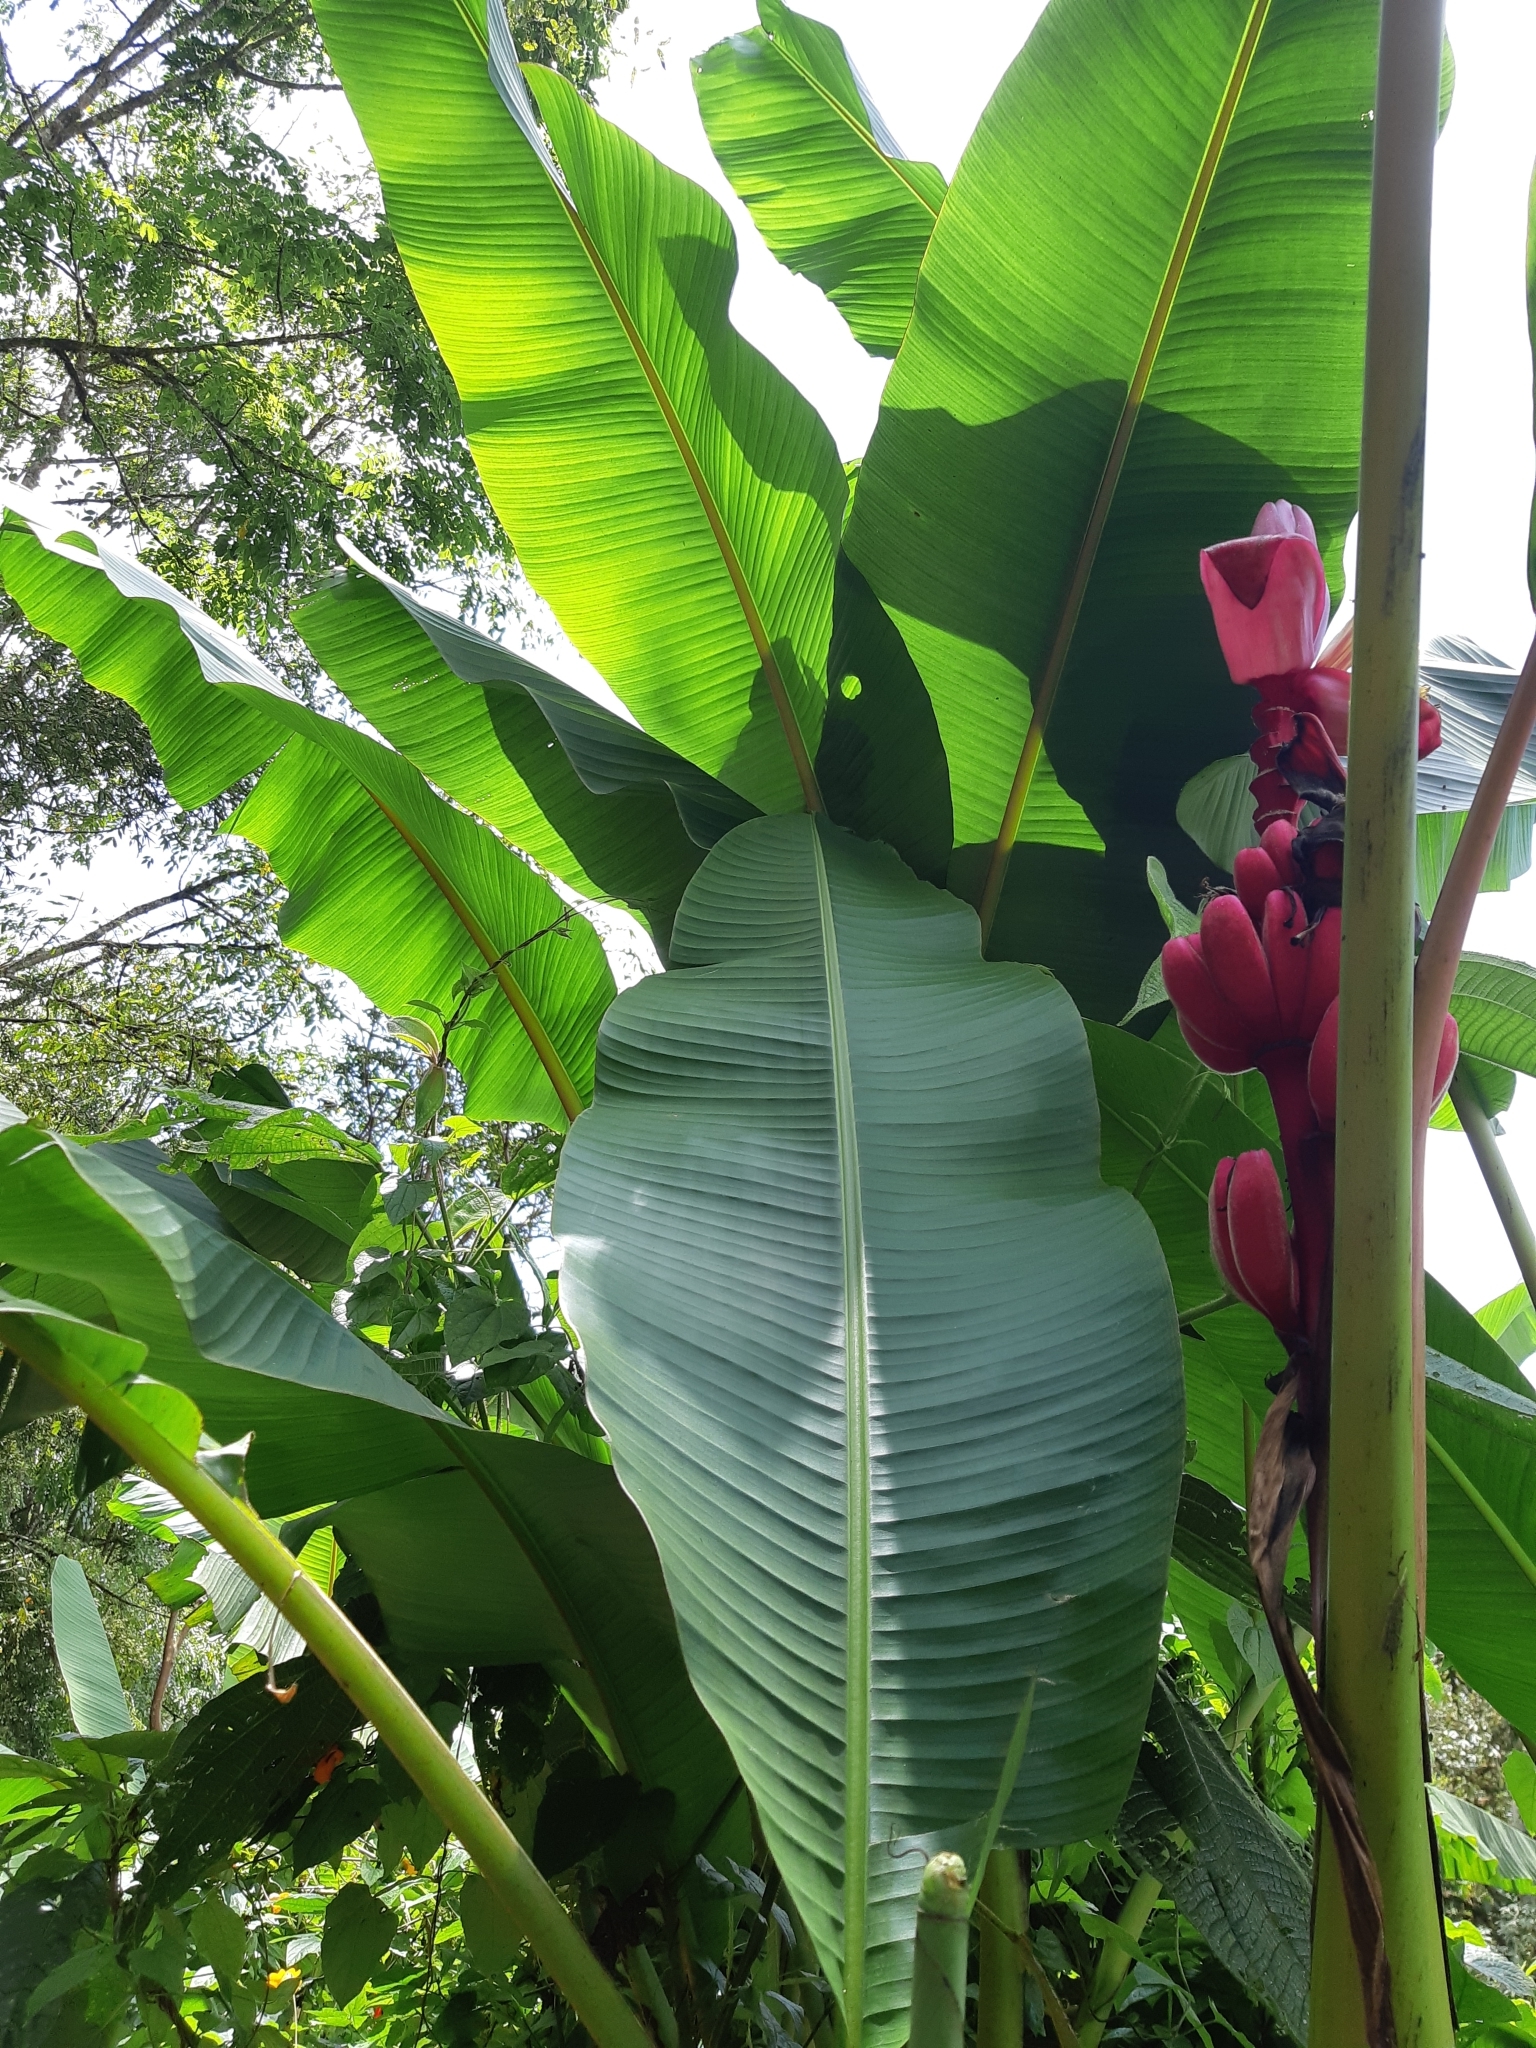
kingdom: Plantae
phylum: Tracheophyta
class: Liliopsida
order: Zingiberales
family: Musaceae
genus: Musa
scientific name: Musa velutina
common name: Pink velvet banana
